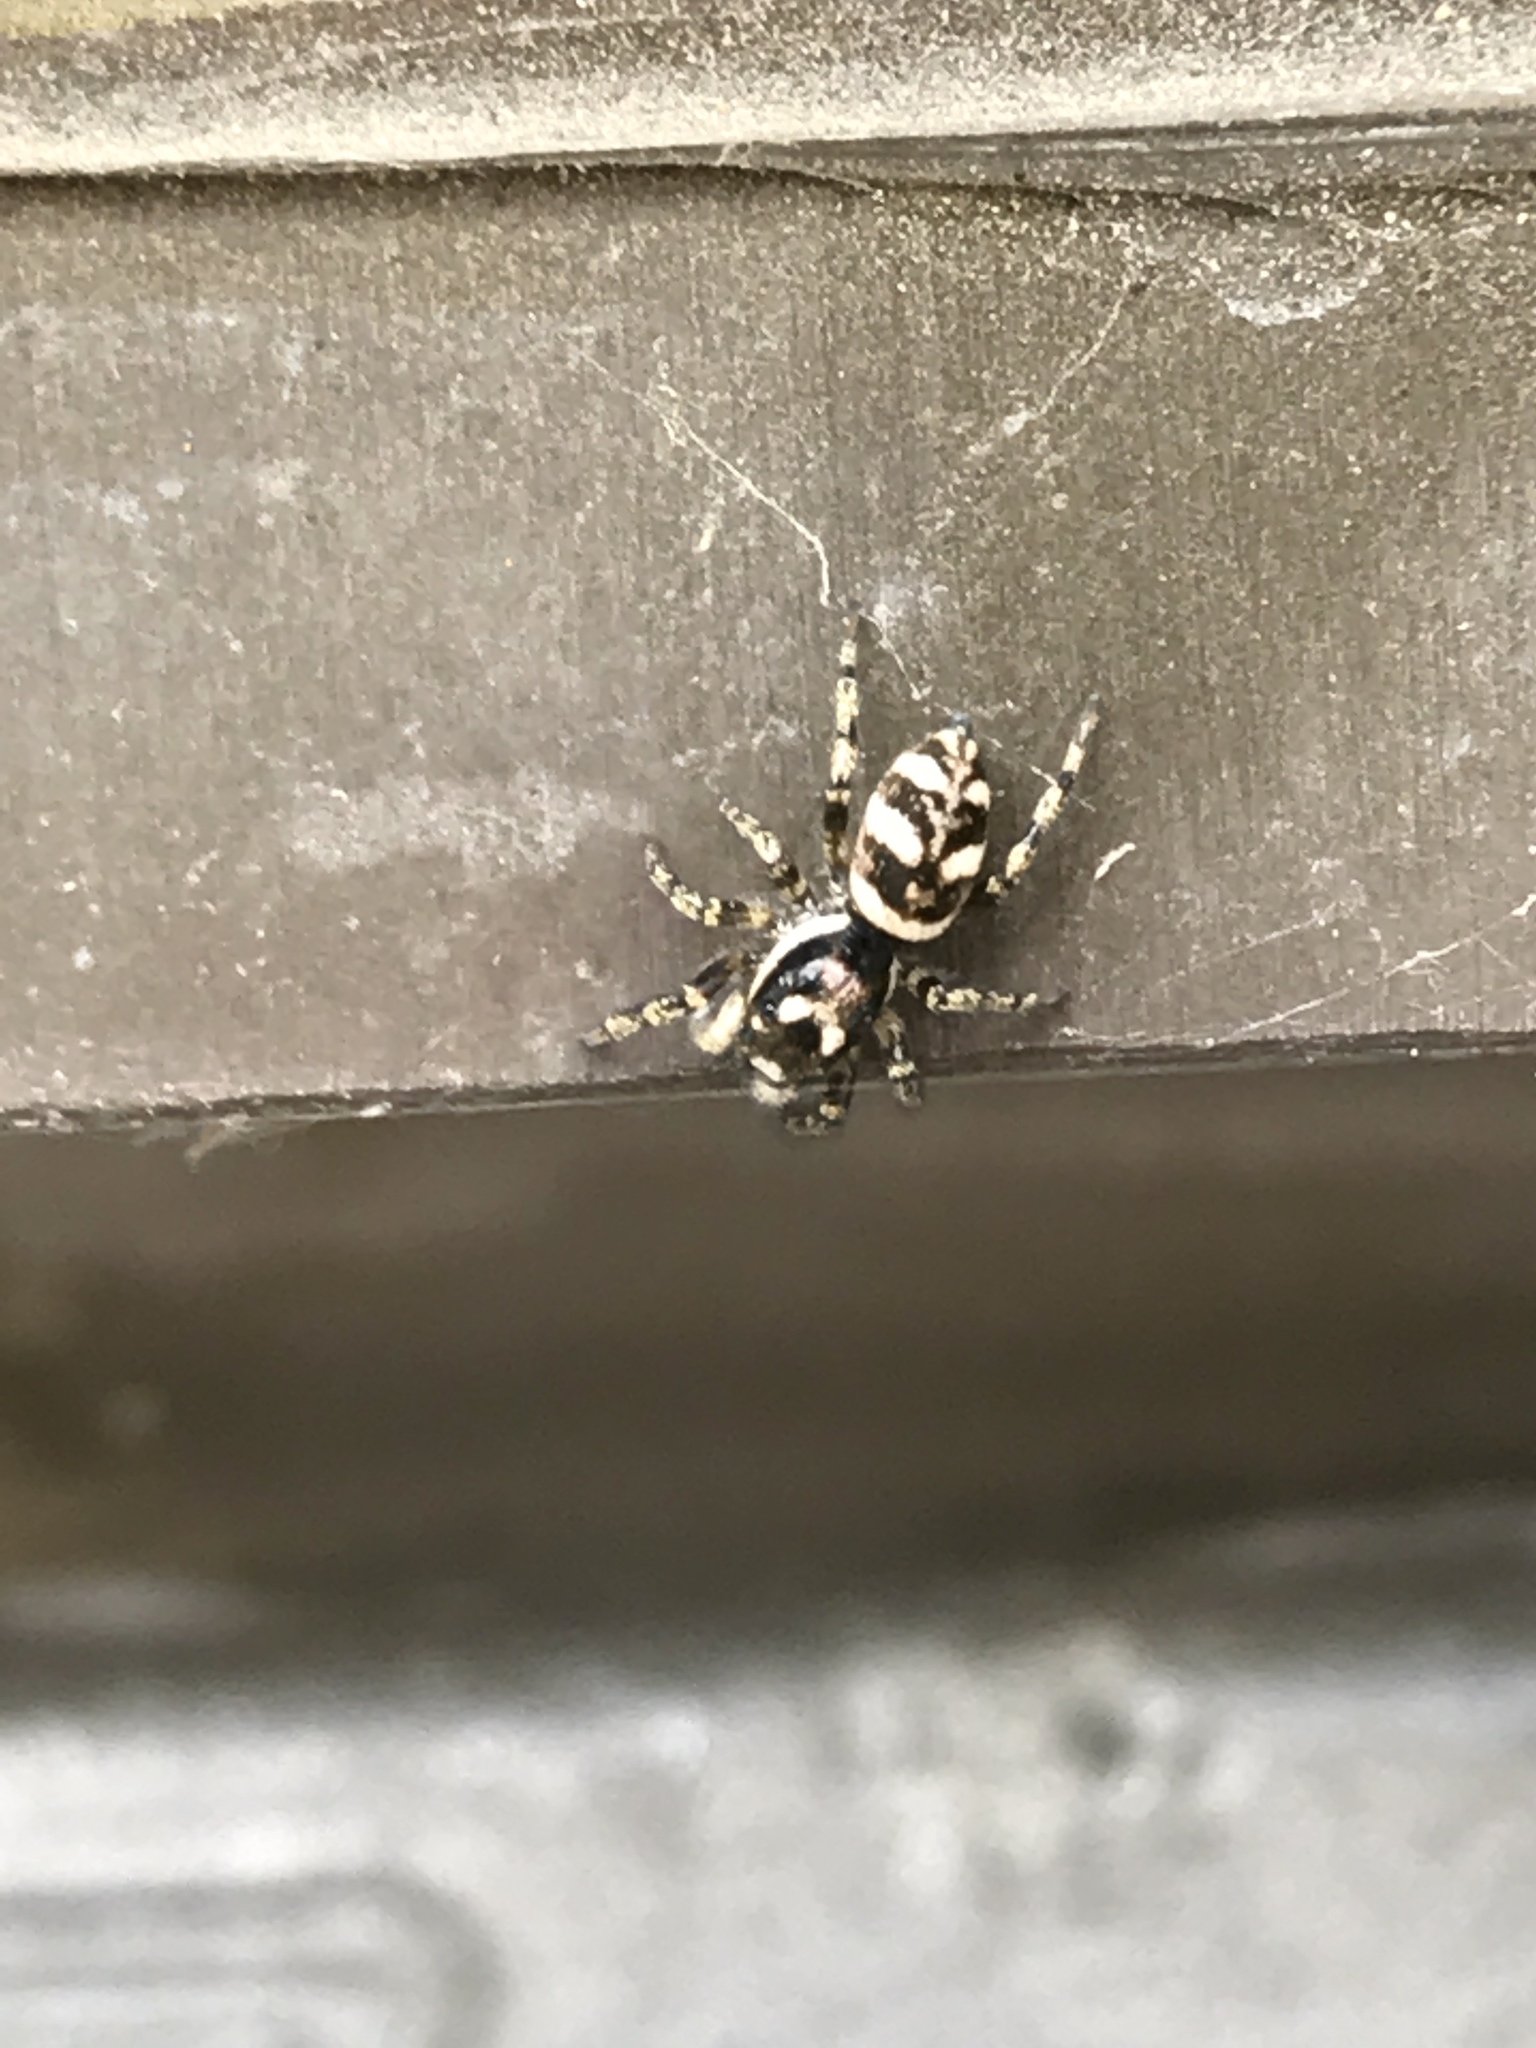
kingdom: Animalia
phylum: Arthropoda
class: Arachnida
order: Araneae
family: Salticidae
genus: Salticus
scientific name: Salticus scenicus
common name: Zebra jumper
